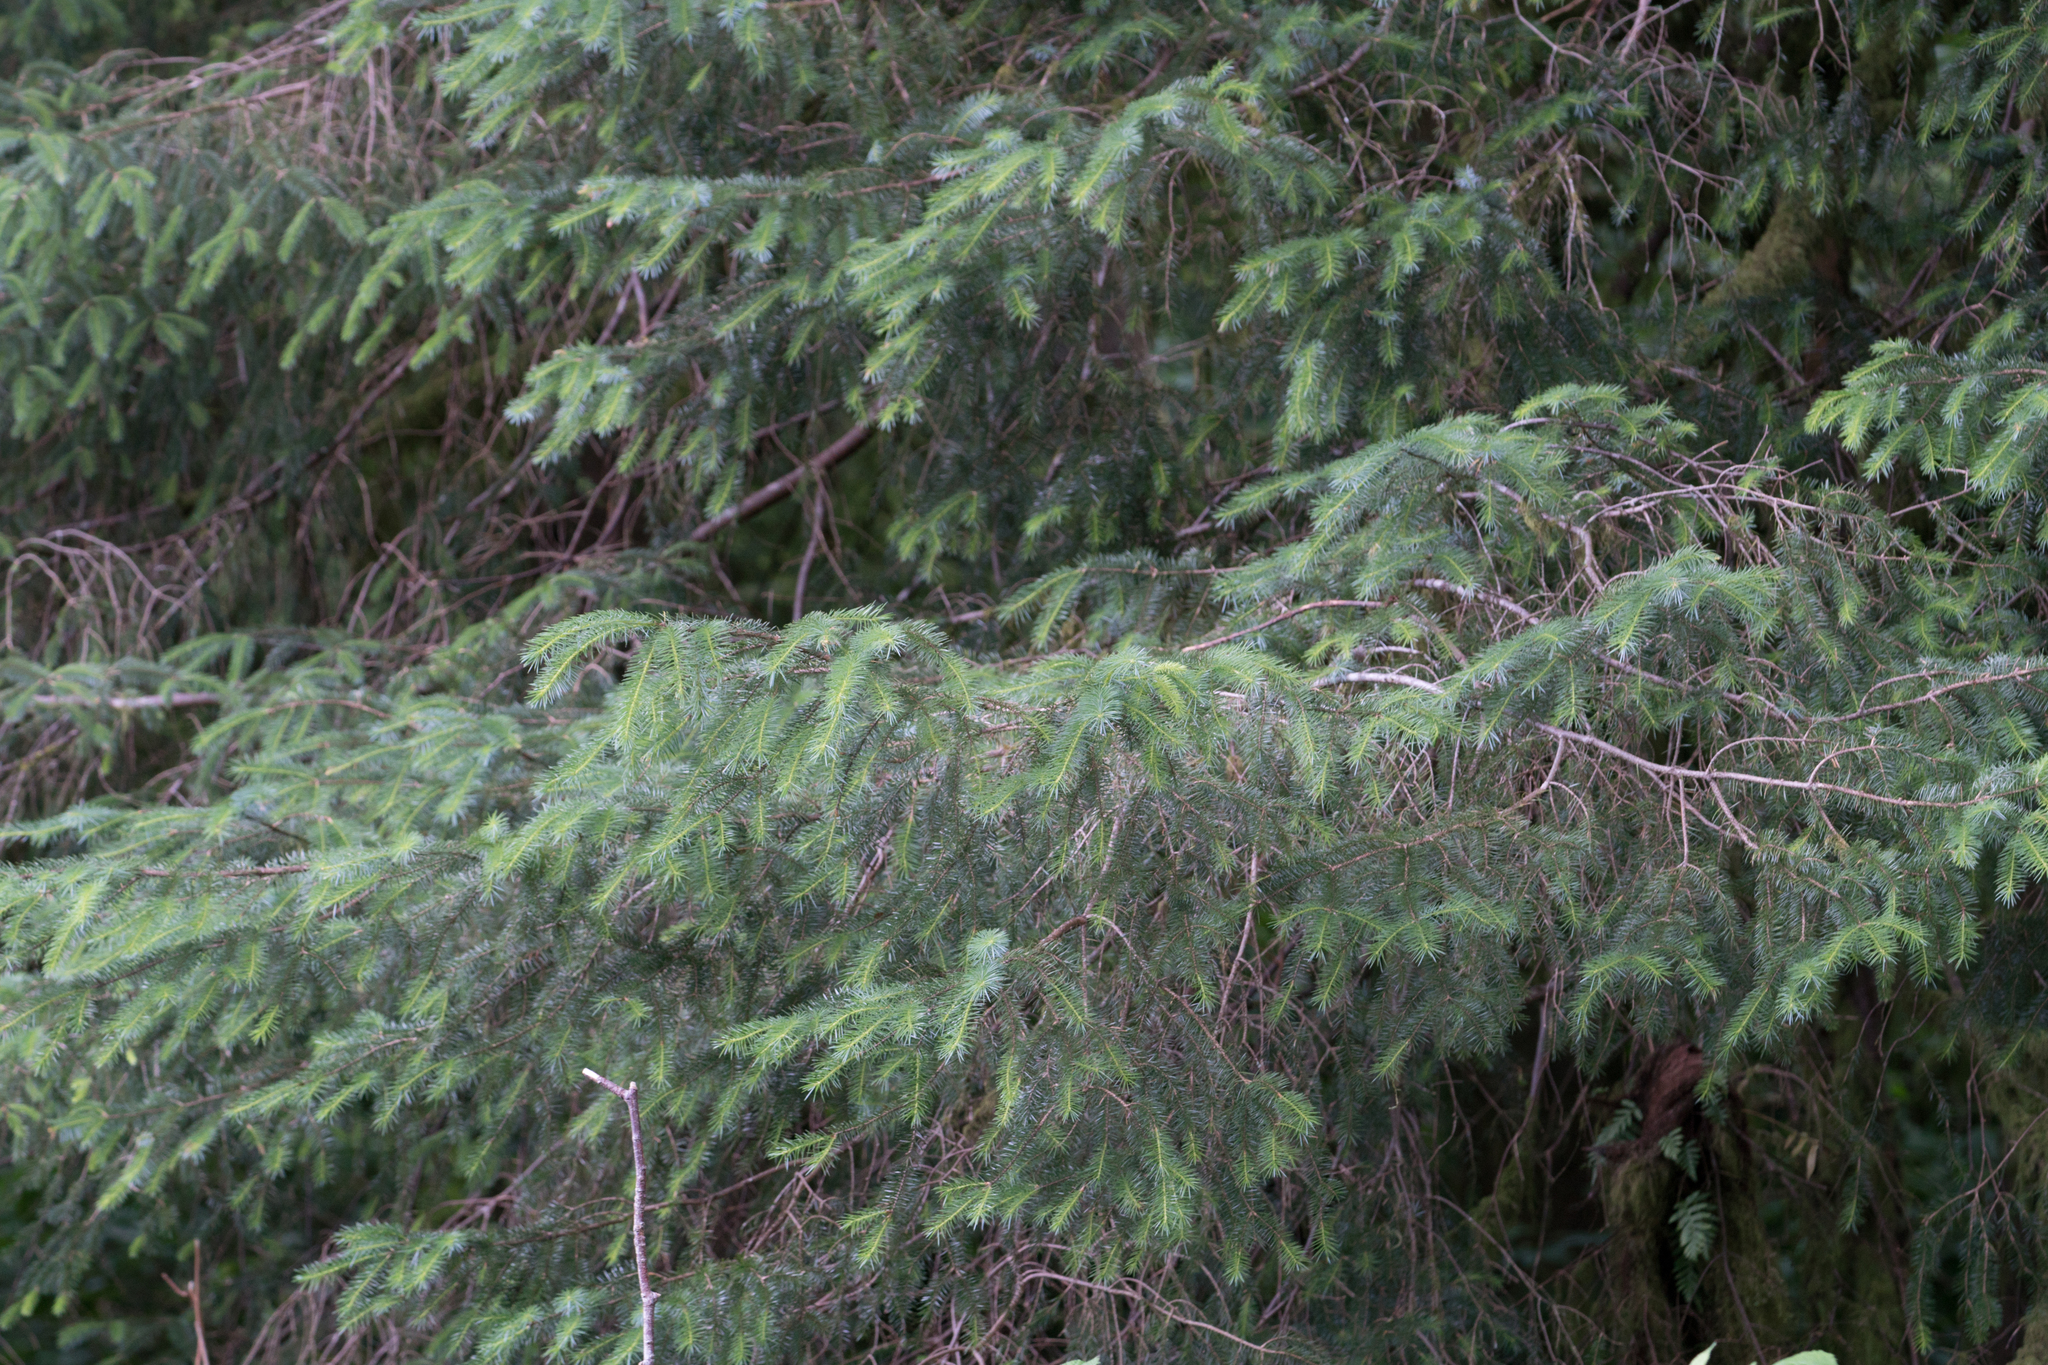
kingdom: Plantae
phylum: Tracheophyta
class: Pinopsida
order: Pinales
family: Pinaceae
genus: Picea
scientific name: Picea sitchensis
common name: Sitka spruce
